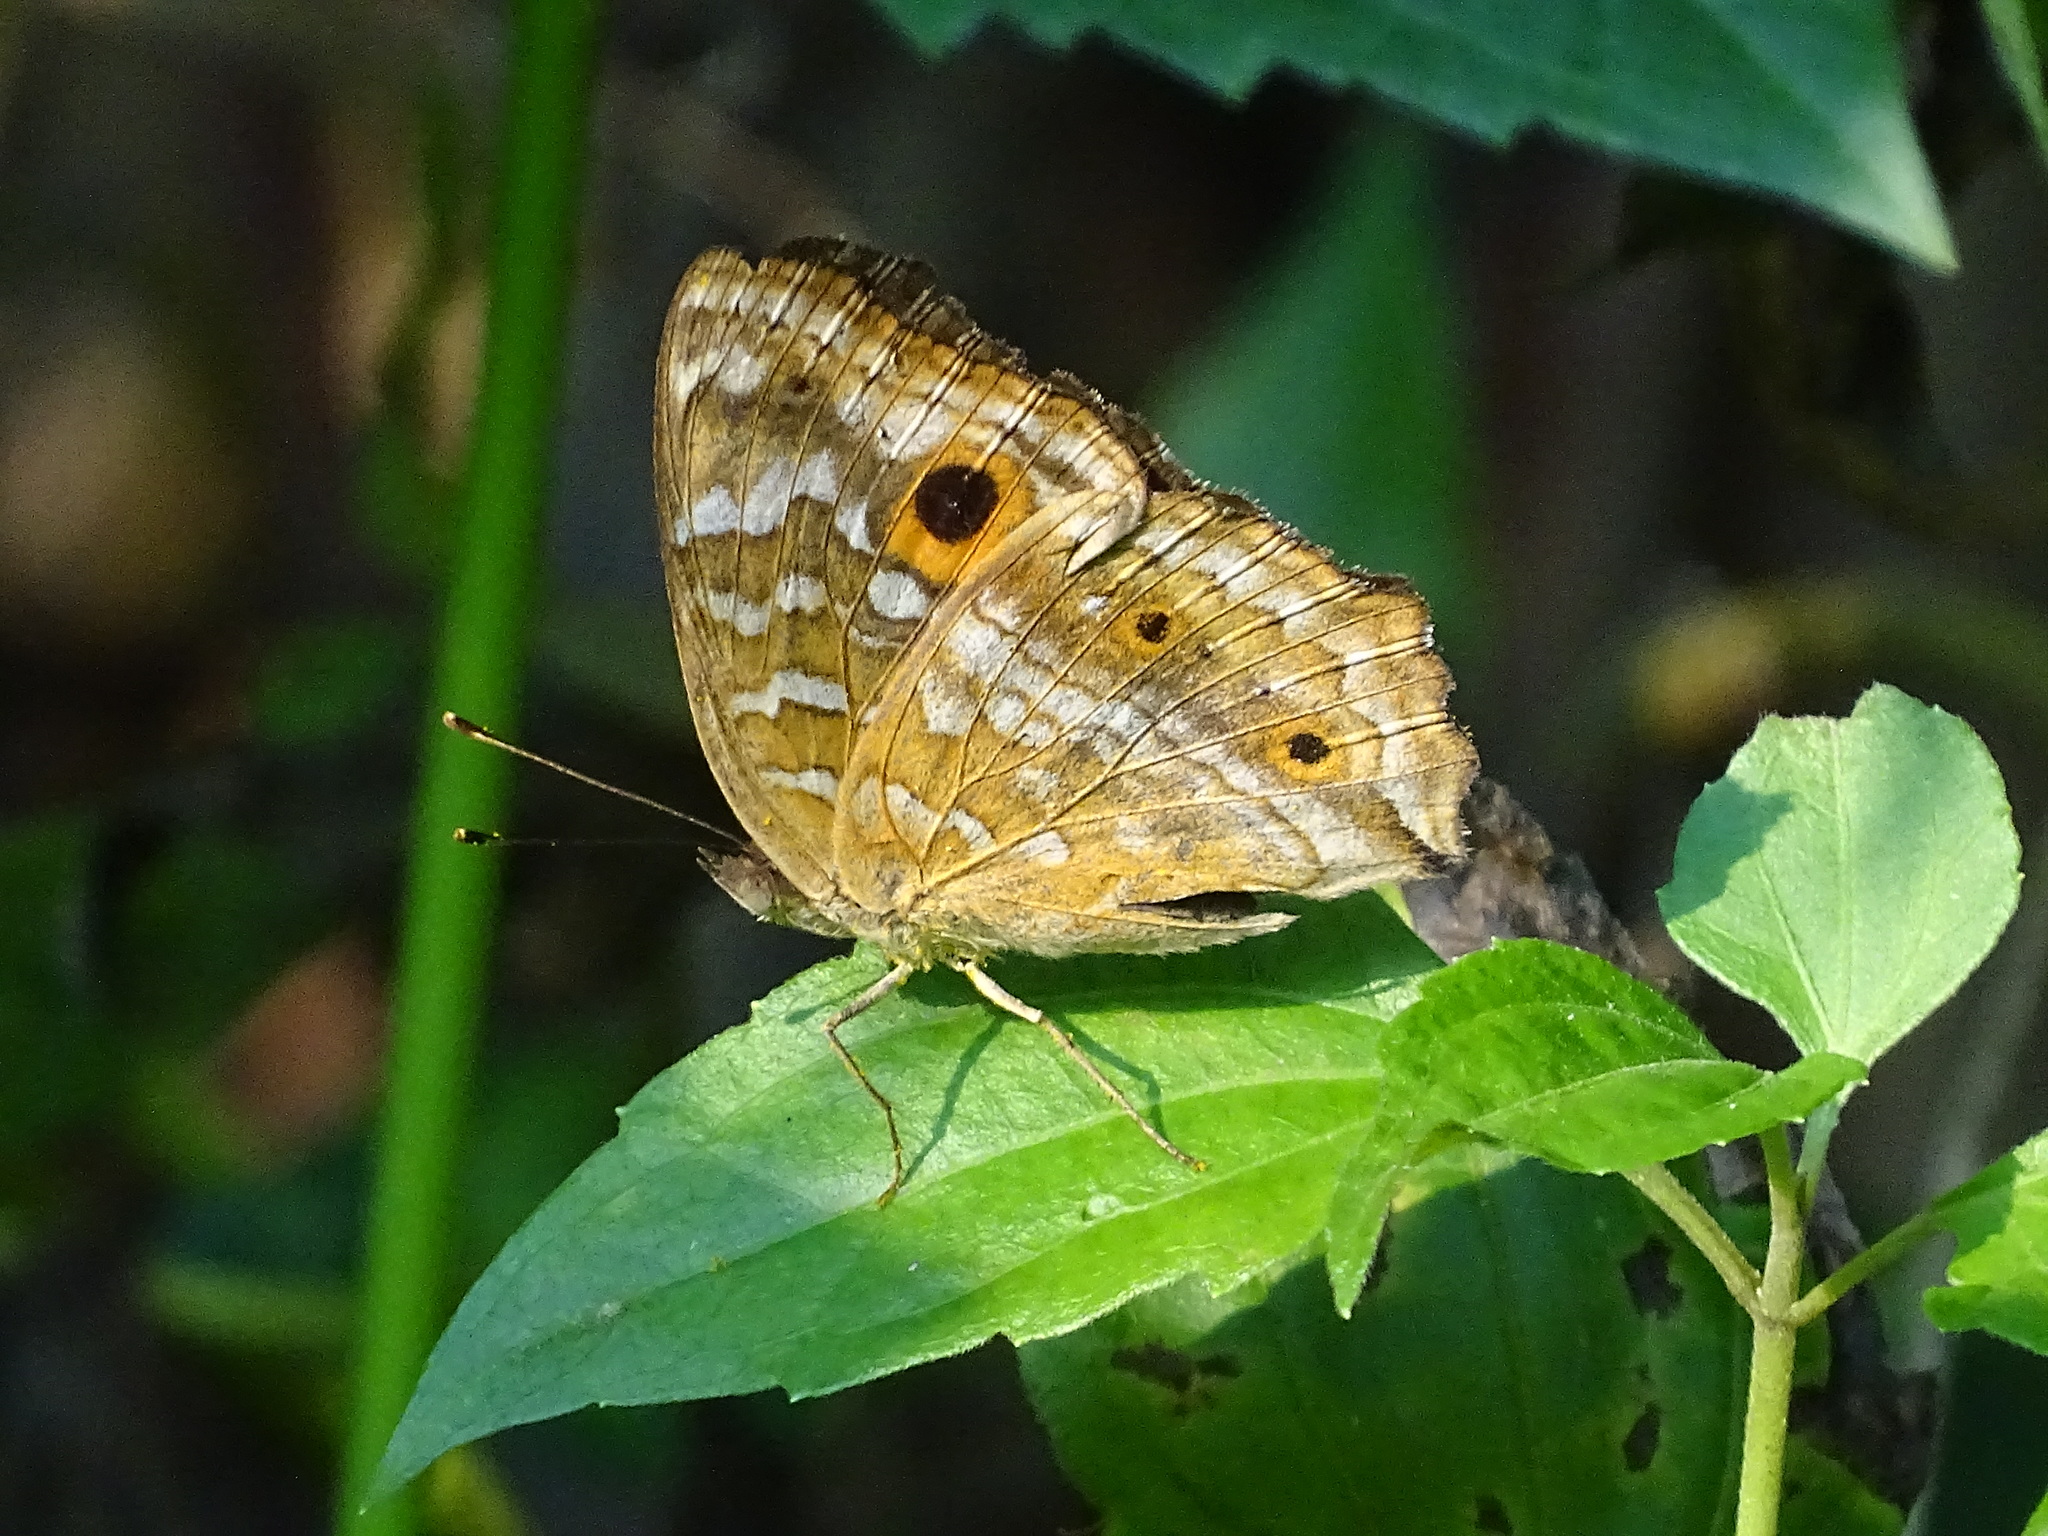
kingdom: Animalia
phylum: Arthropoda
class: Insecta
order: Lepidoptera
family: Nymphalidae
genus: Junonia
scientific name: Junonia lemonias
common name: Lemon pansy
